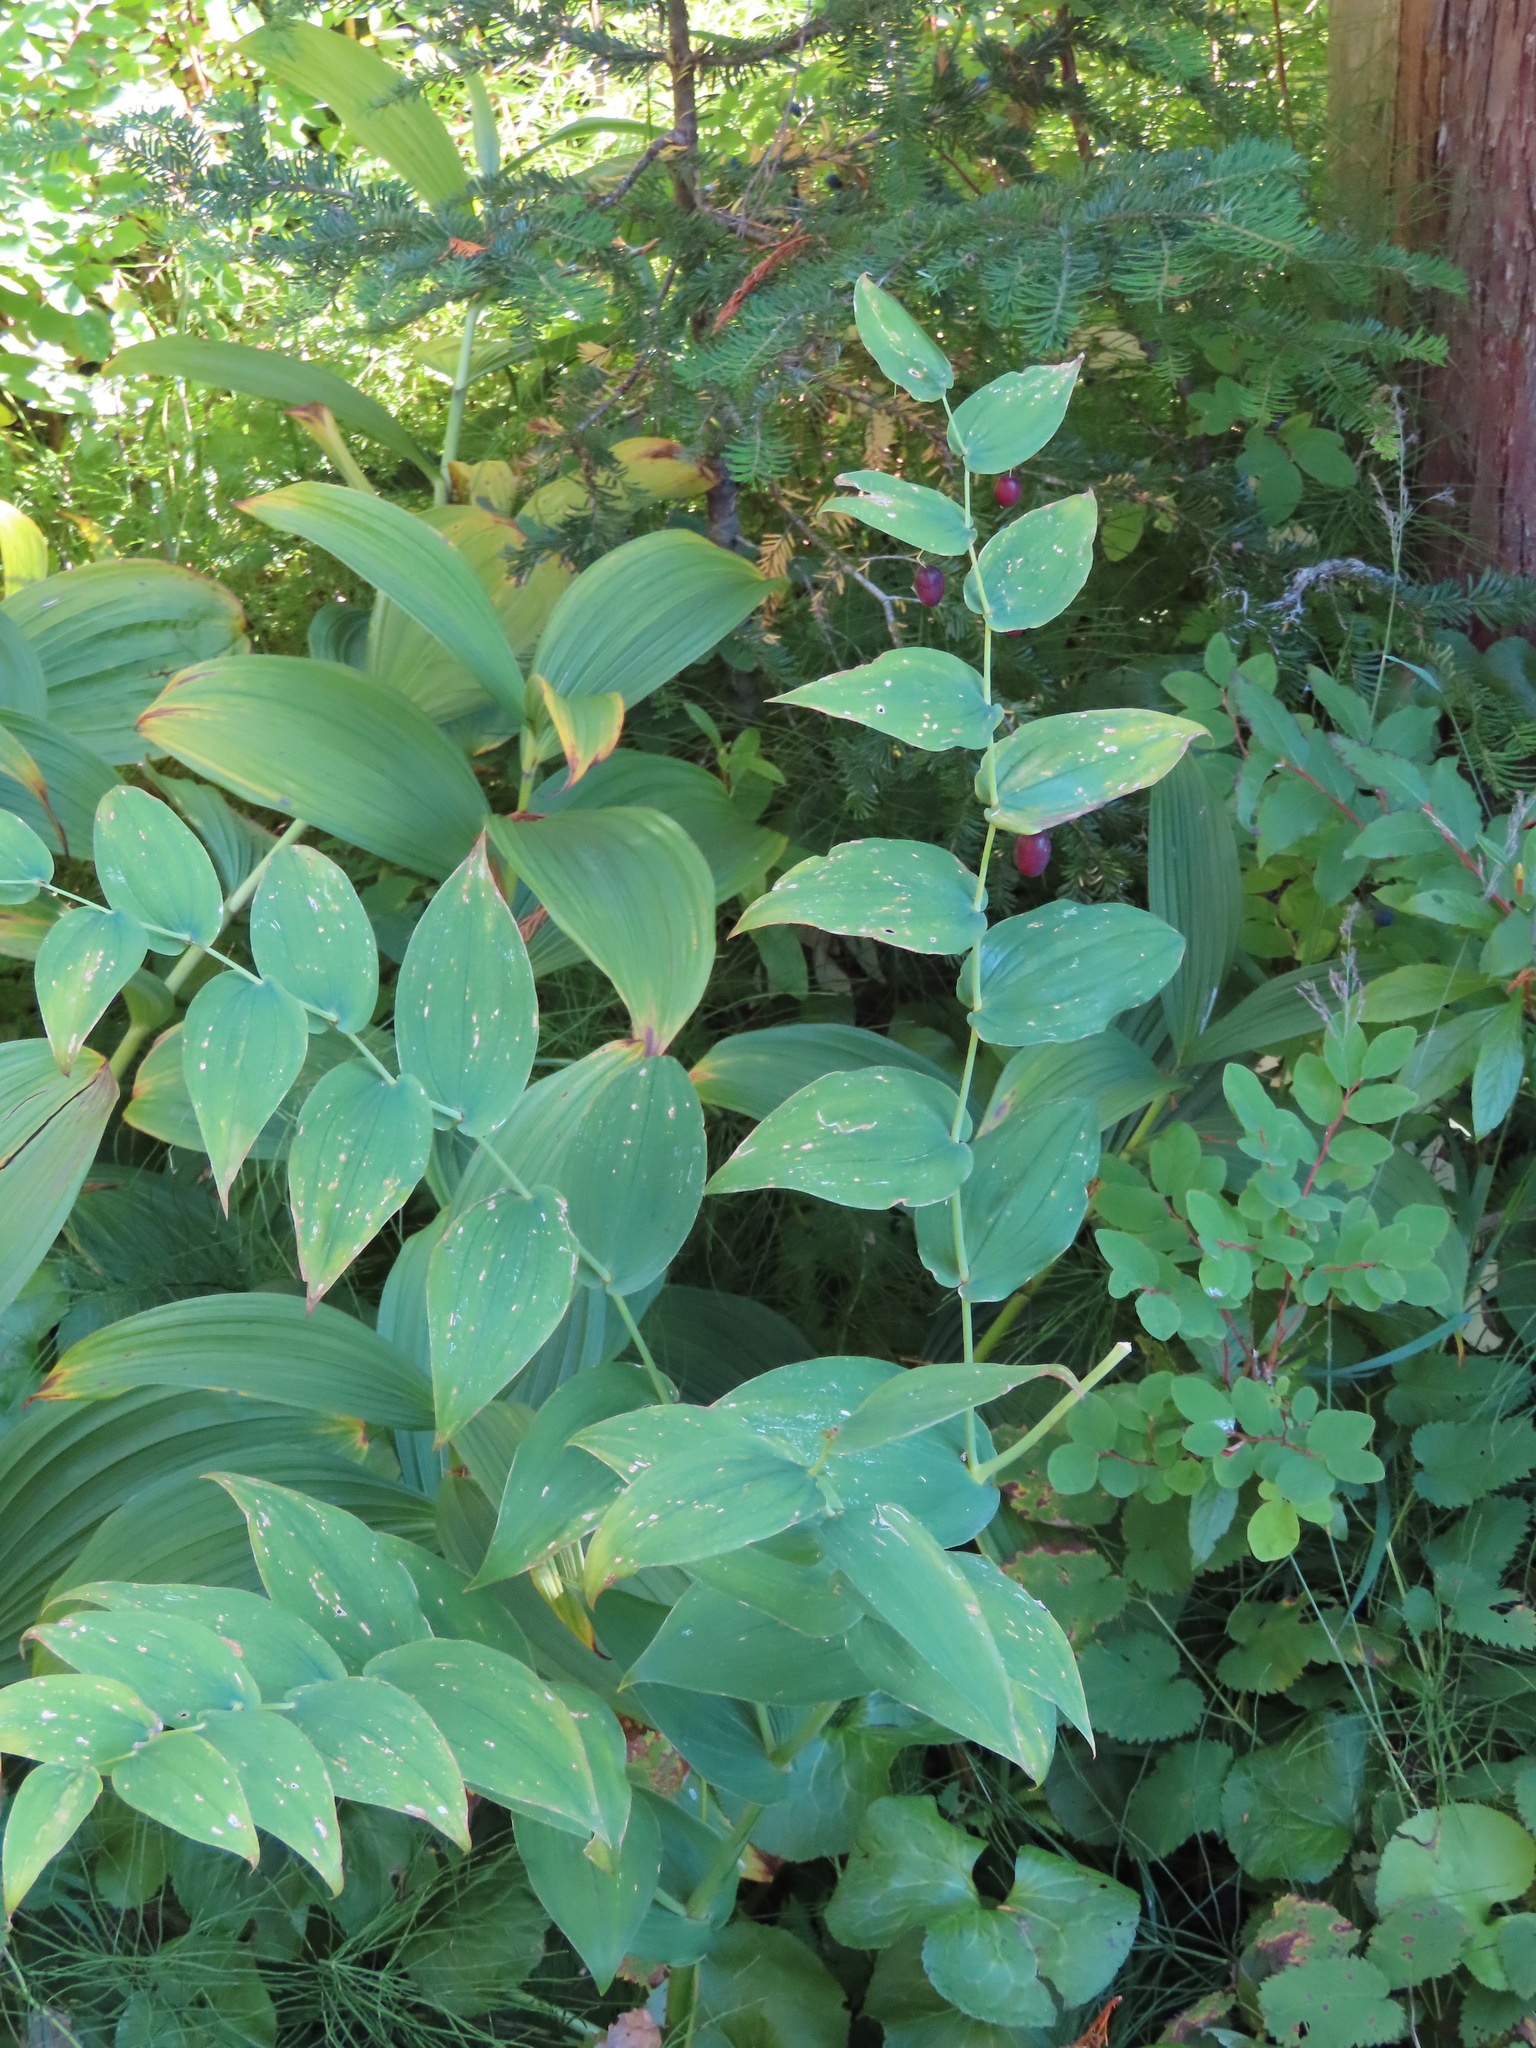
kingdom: Plantae
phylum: Tracheophyta
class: Liliopsida
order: Liliales
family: Liliaceae
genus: Streptopus
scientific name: Streptopus amplexifolius
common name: Clasp twisted stalk
